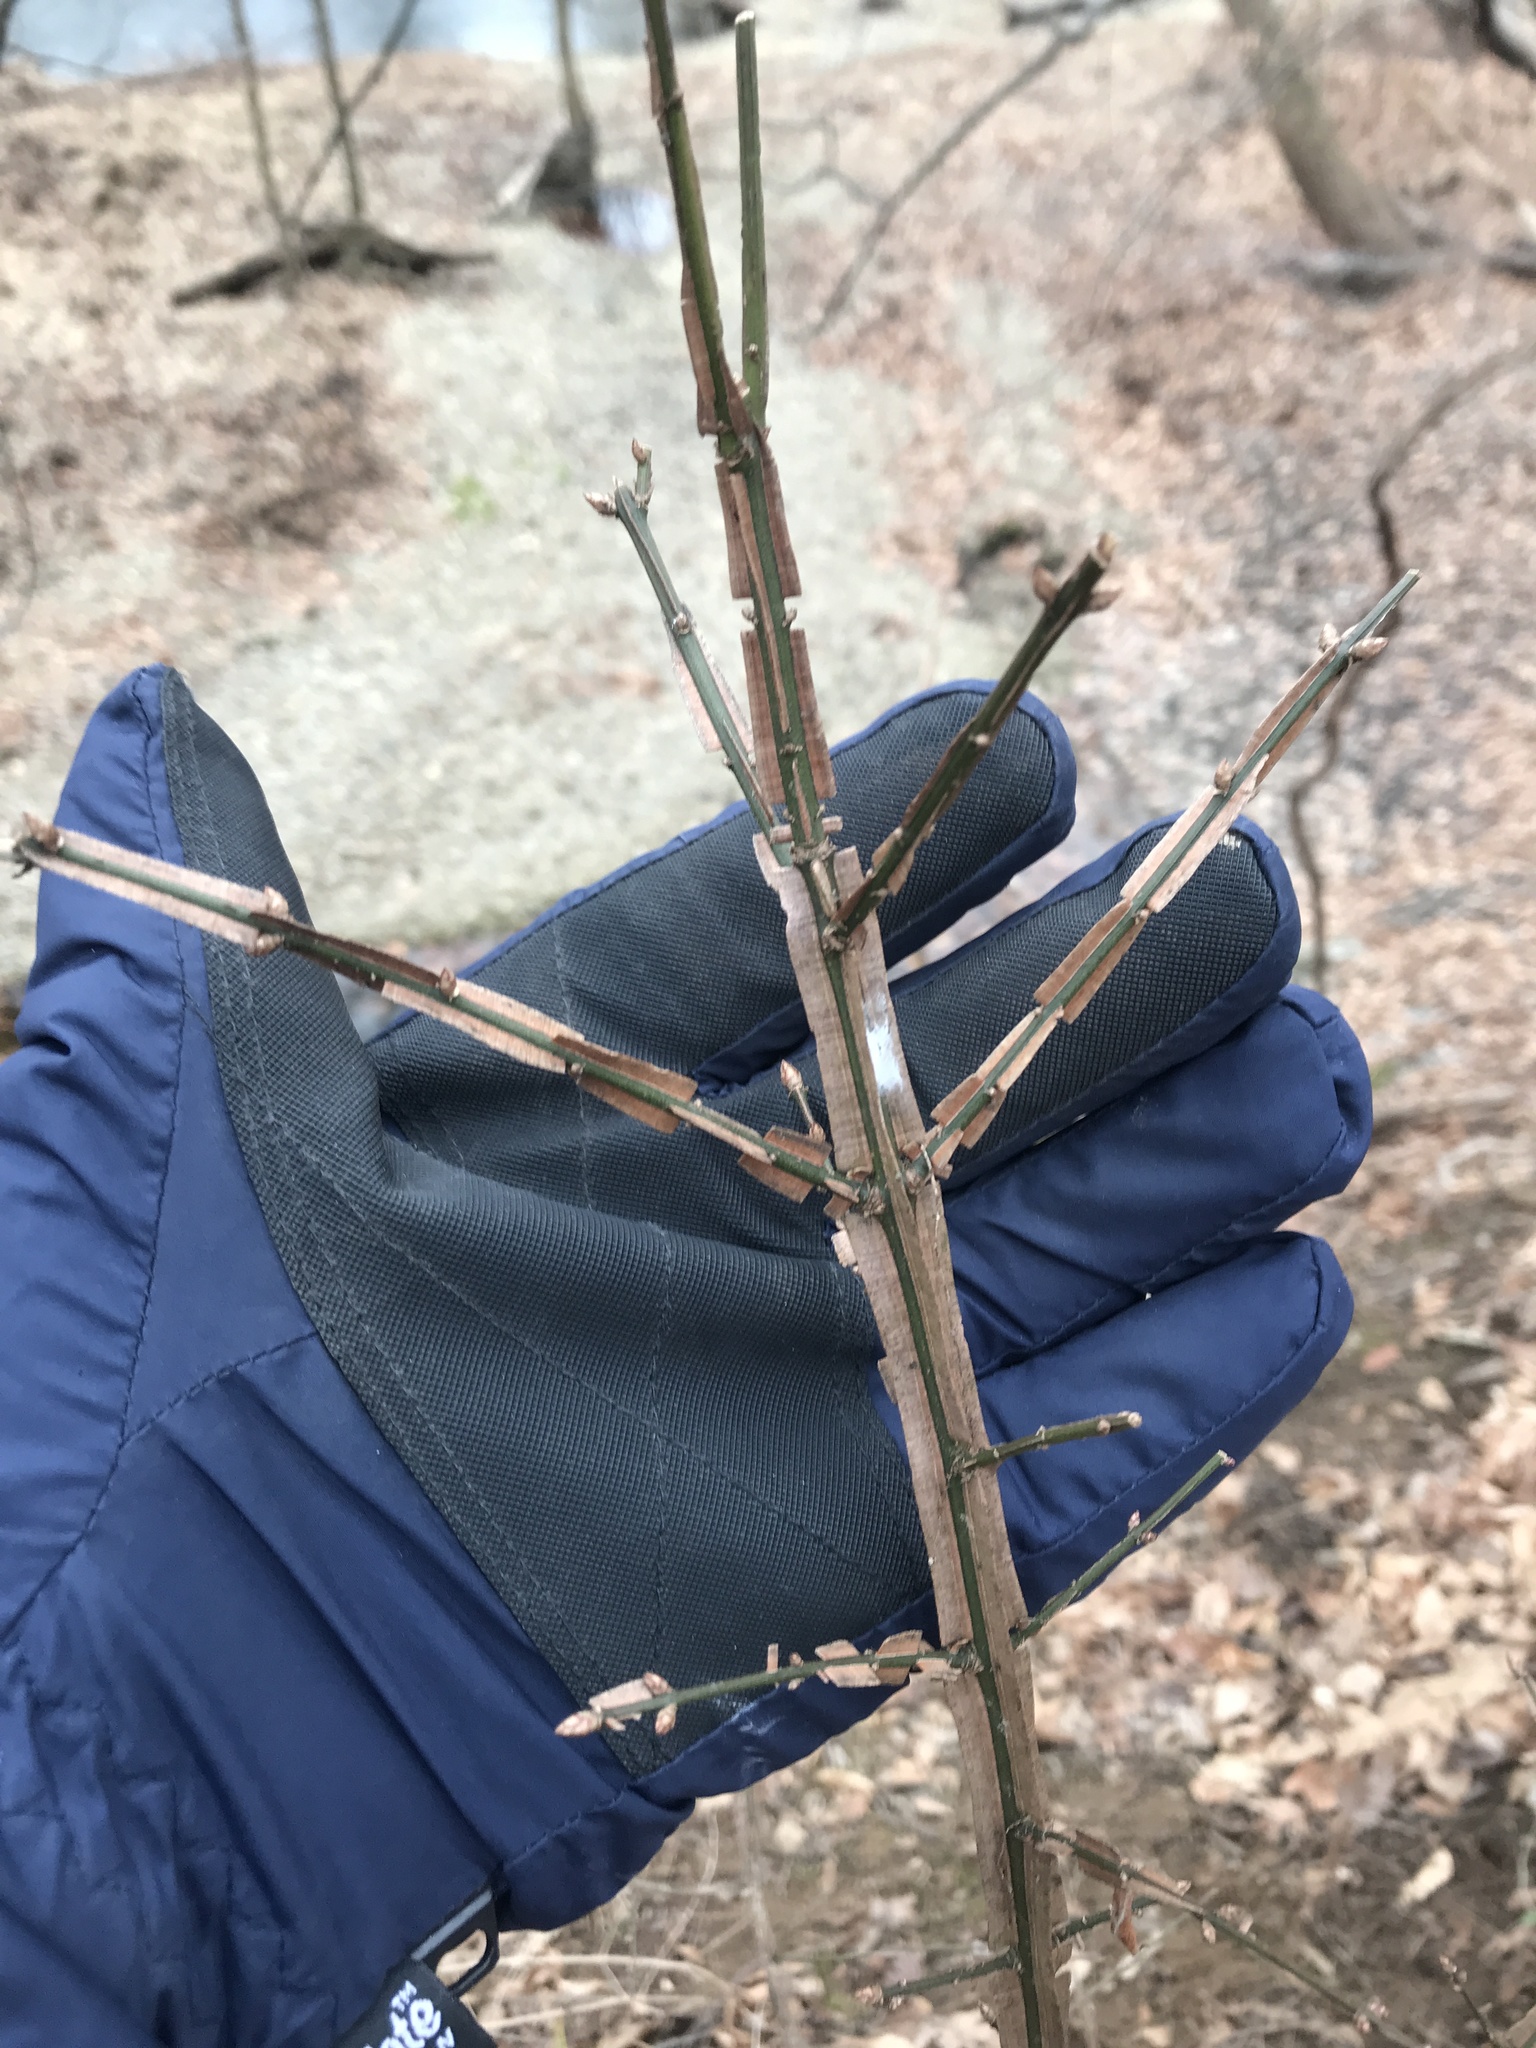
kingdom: Plantae
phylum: Tracheophyta
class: Magnoliopsida
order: Celastrales
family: Celastraceae
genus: Euonymus
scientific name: Euonymus alatus
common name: Winged euonymus
